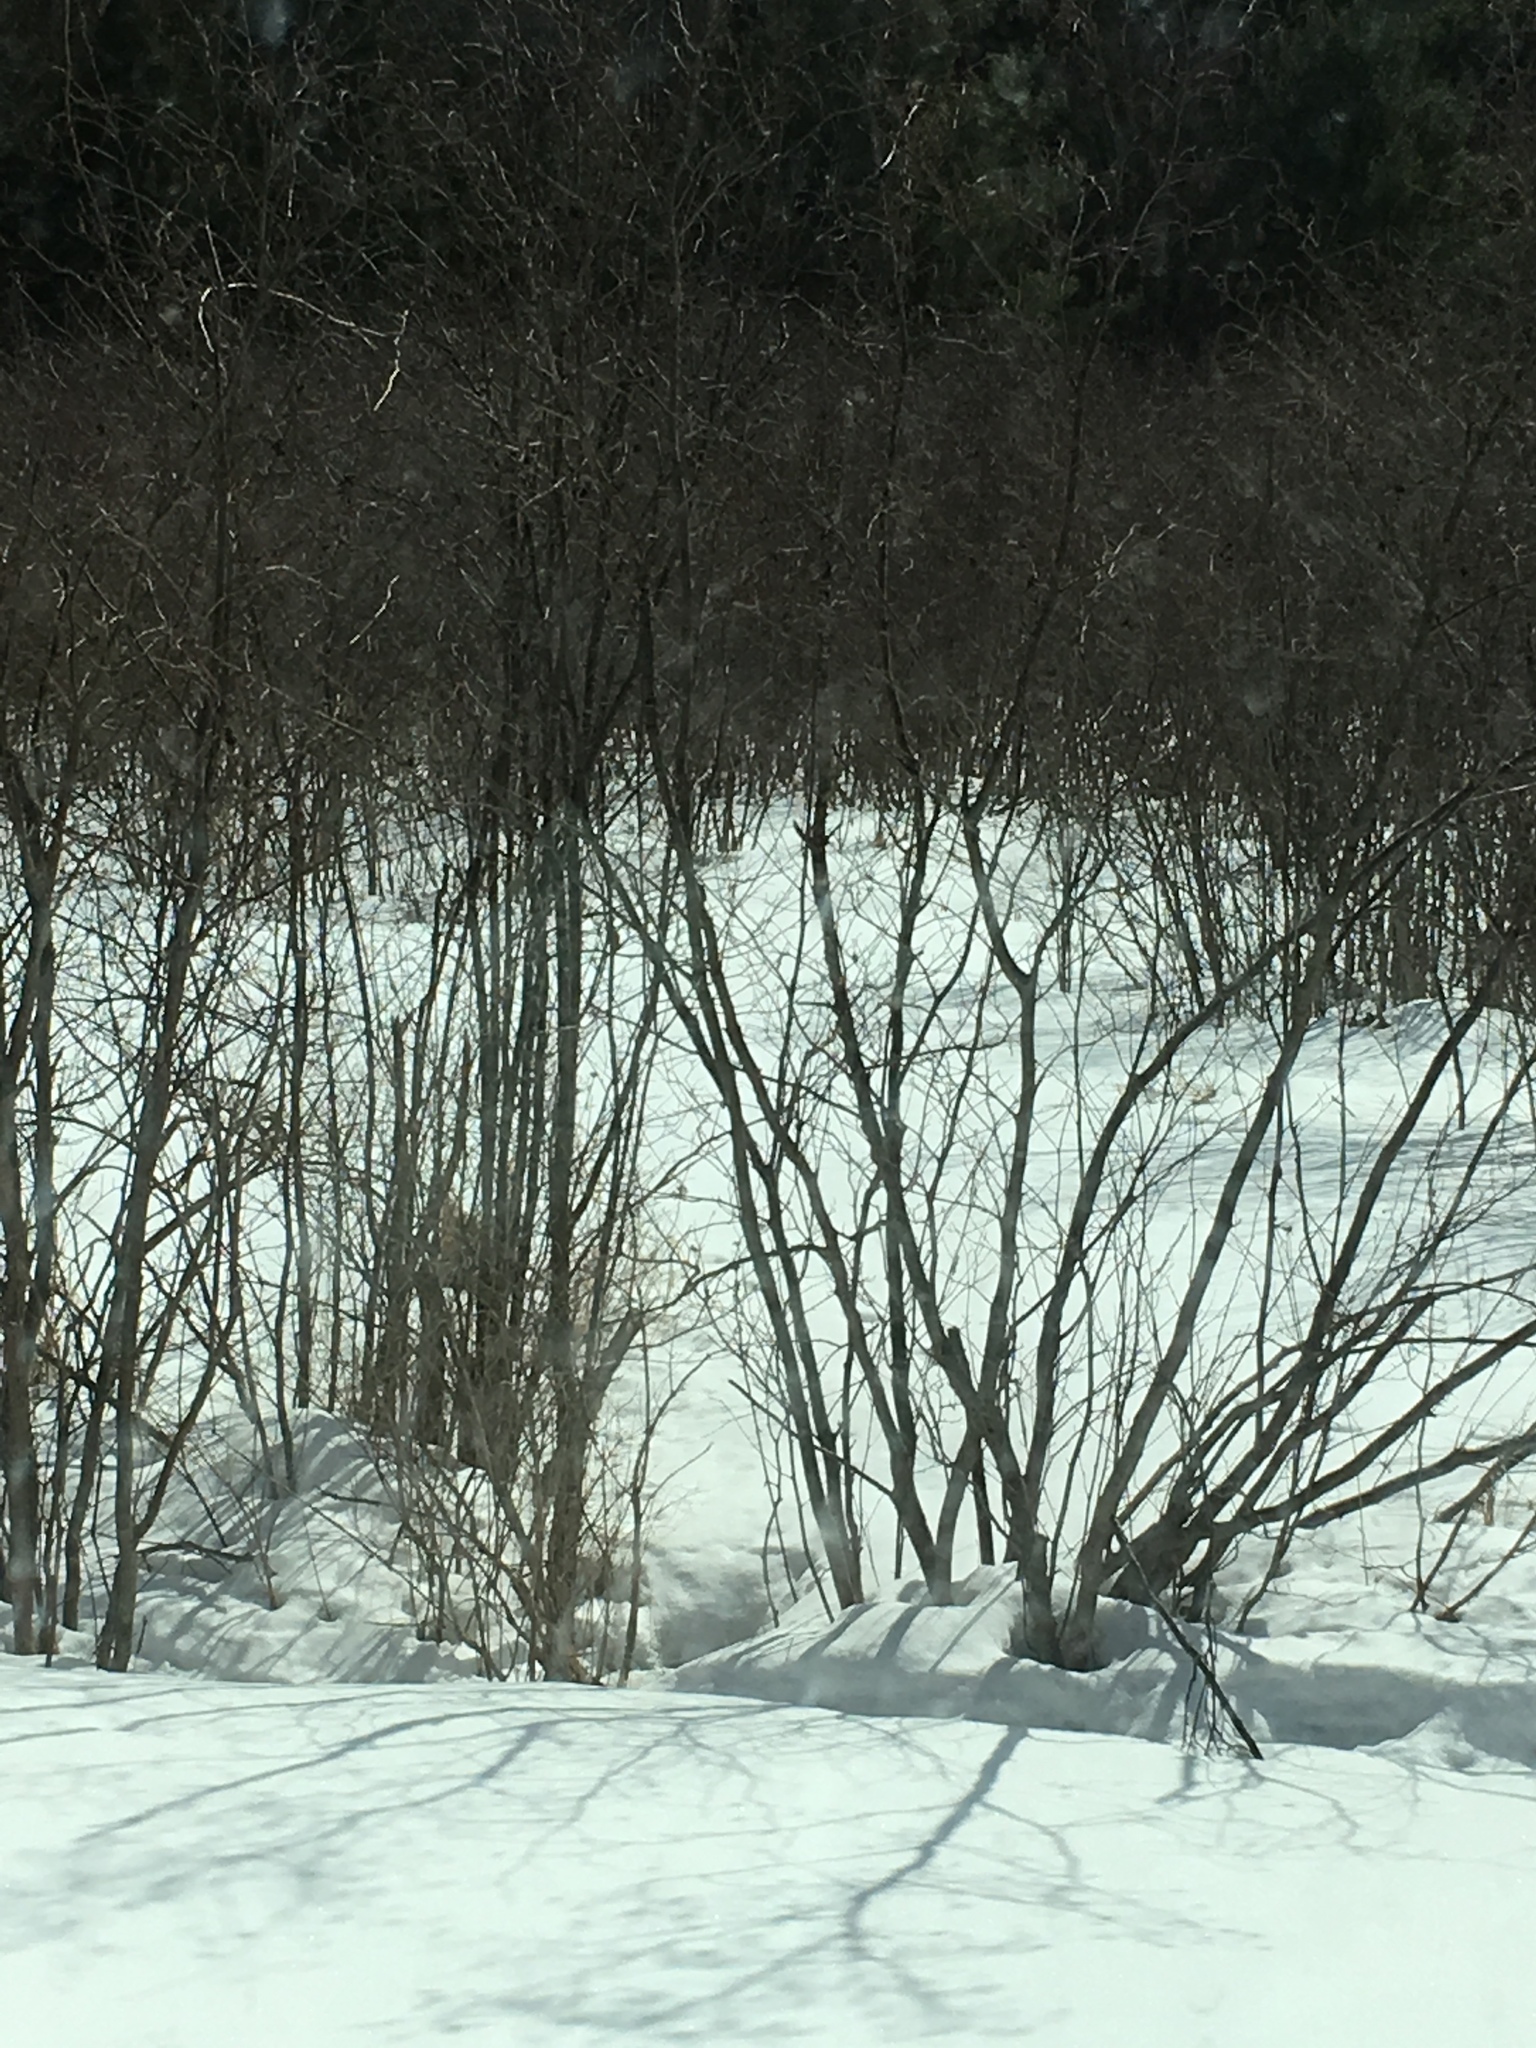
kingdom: Plantae
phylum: Tracheophyta
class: Magnoliopsida
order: Fagales
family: Betulaceae
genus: Alnus
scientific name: Alnus incana
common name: Grey alder
